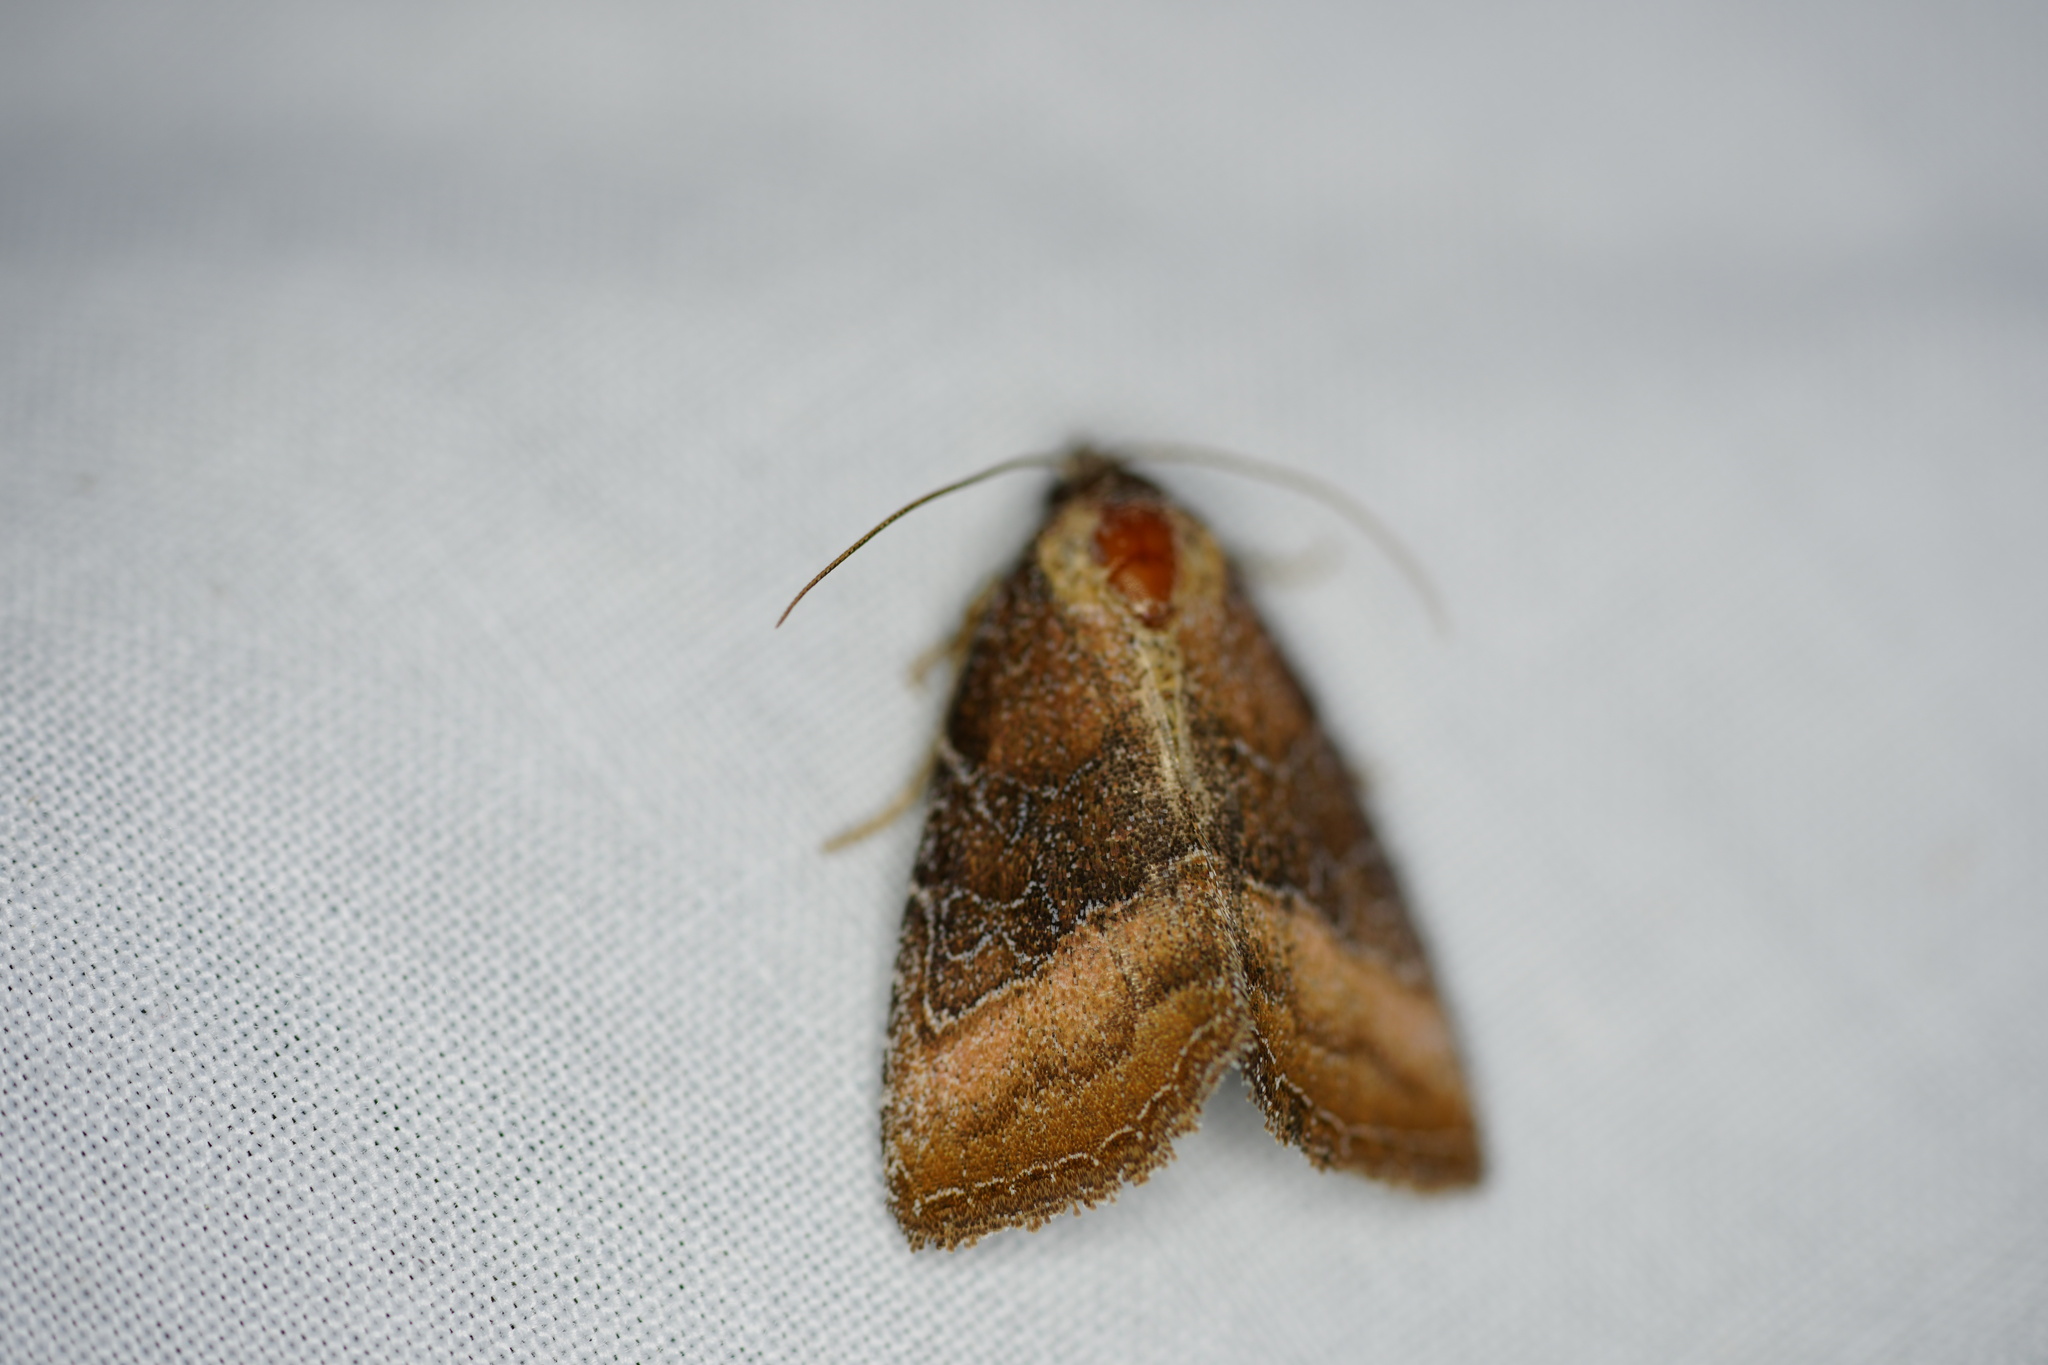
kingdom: Animalia
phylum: Arthropoda
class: Insecta
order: Lepidoptera
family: Noctuidae
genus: Ogdoconta
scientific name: Ogdoconta cinereola
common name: Common pinkband
